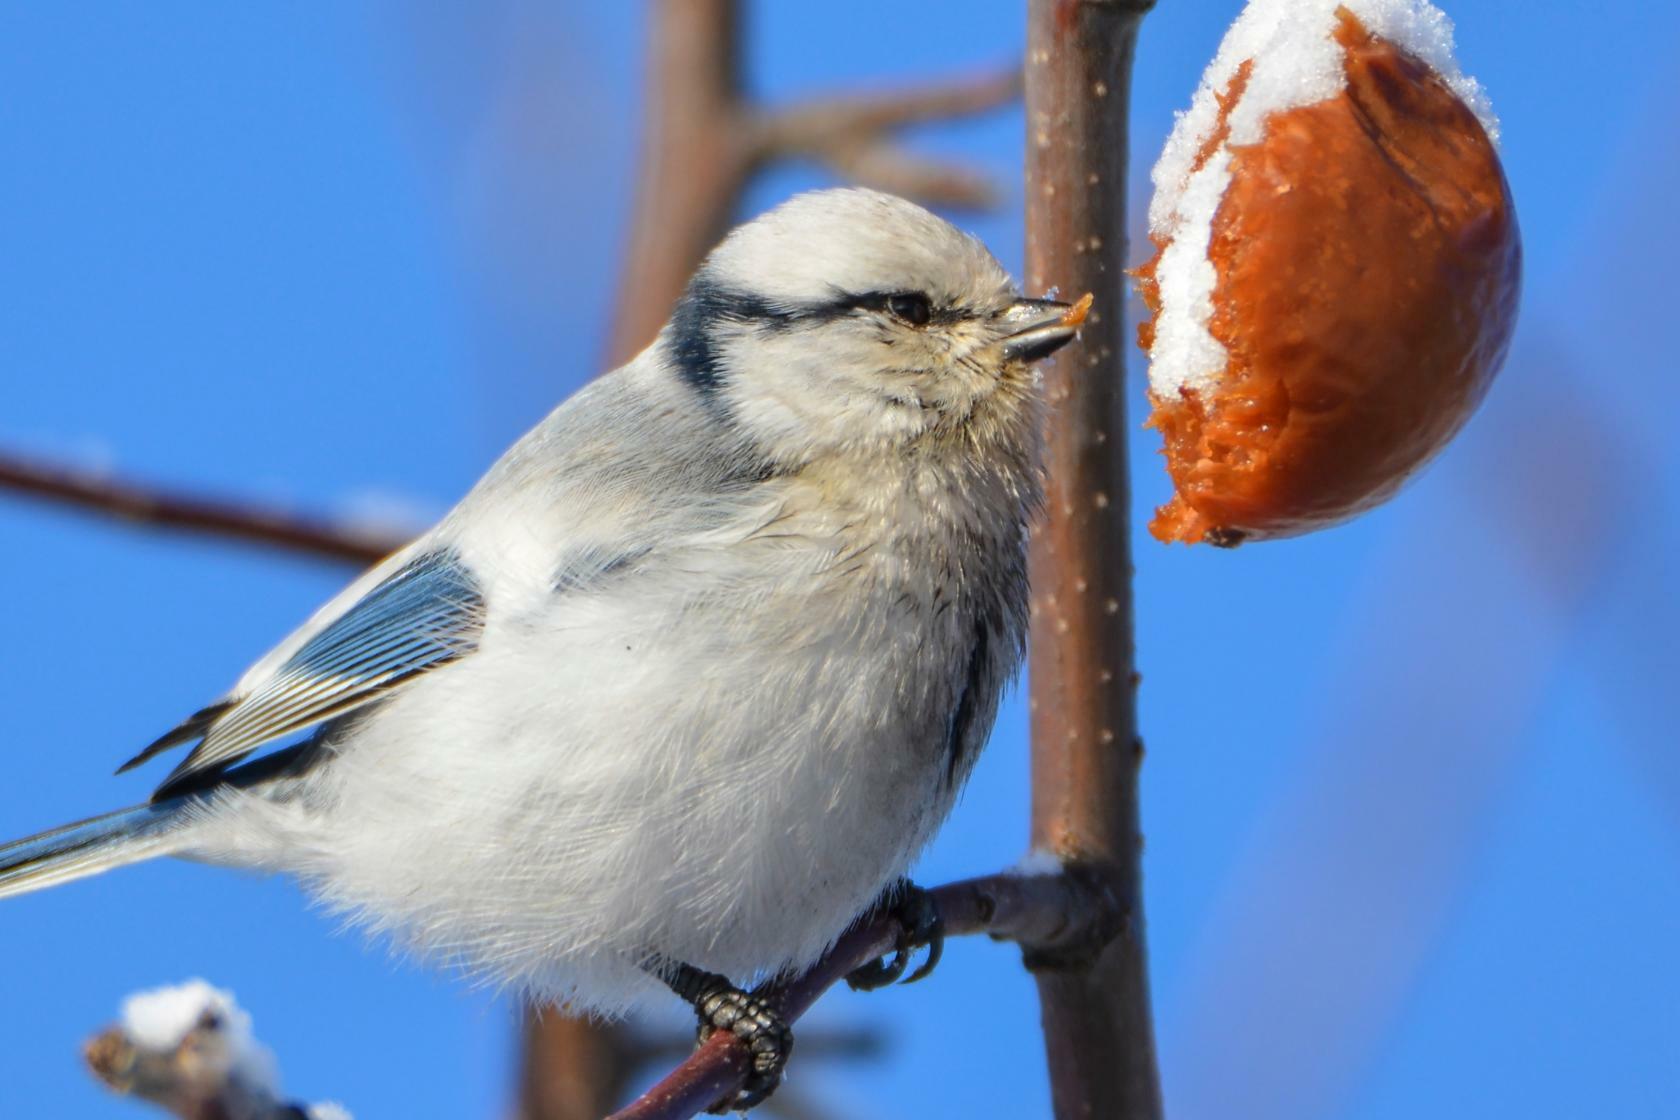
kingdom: Animalia
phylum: Chordata
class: Aves
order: Passeriformes
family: Paridae
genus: Cyanistes
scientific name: Cyanistes cyanus
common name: Azure tit
